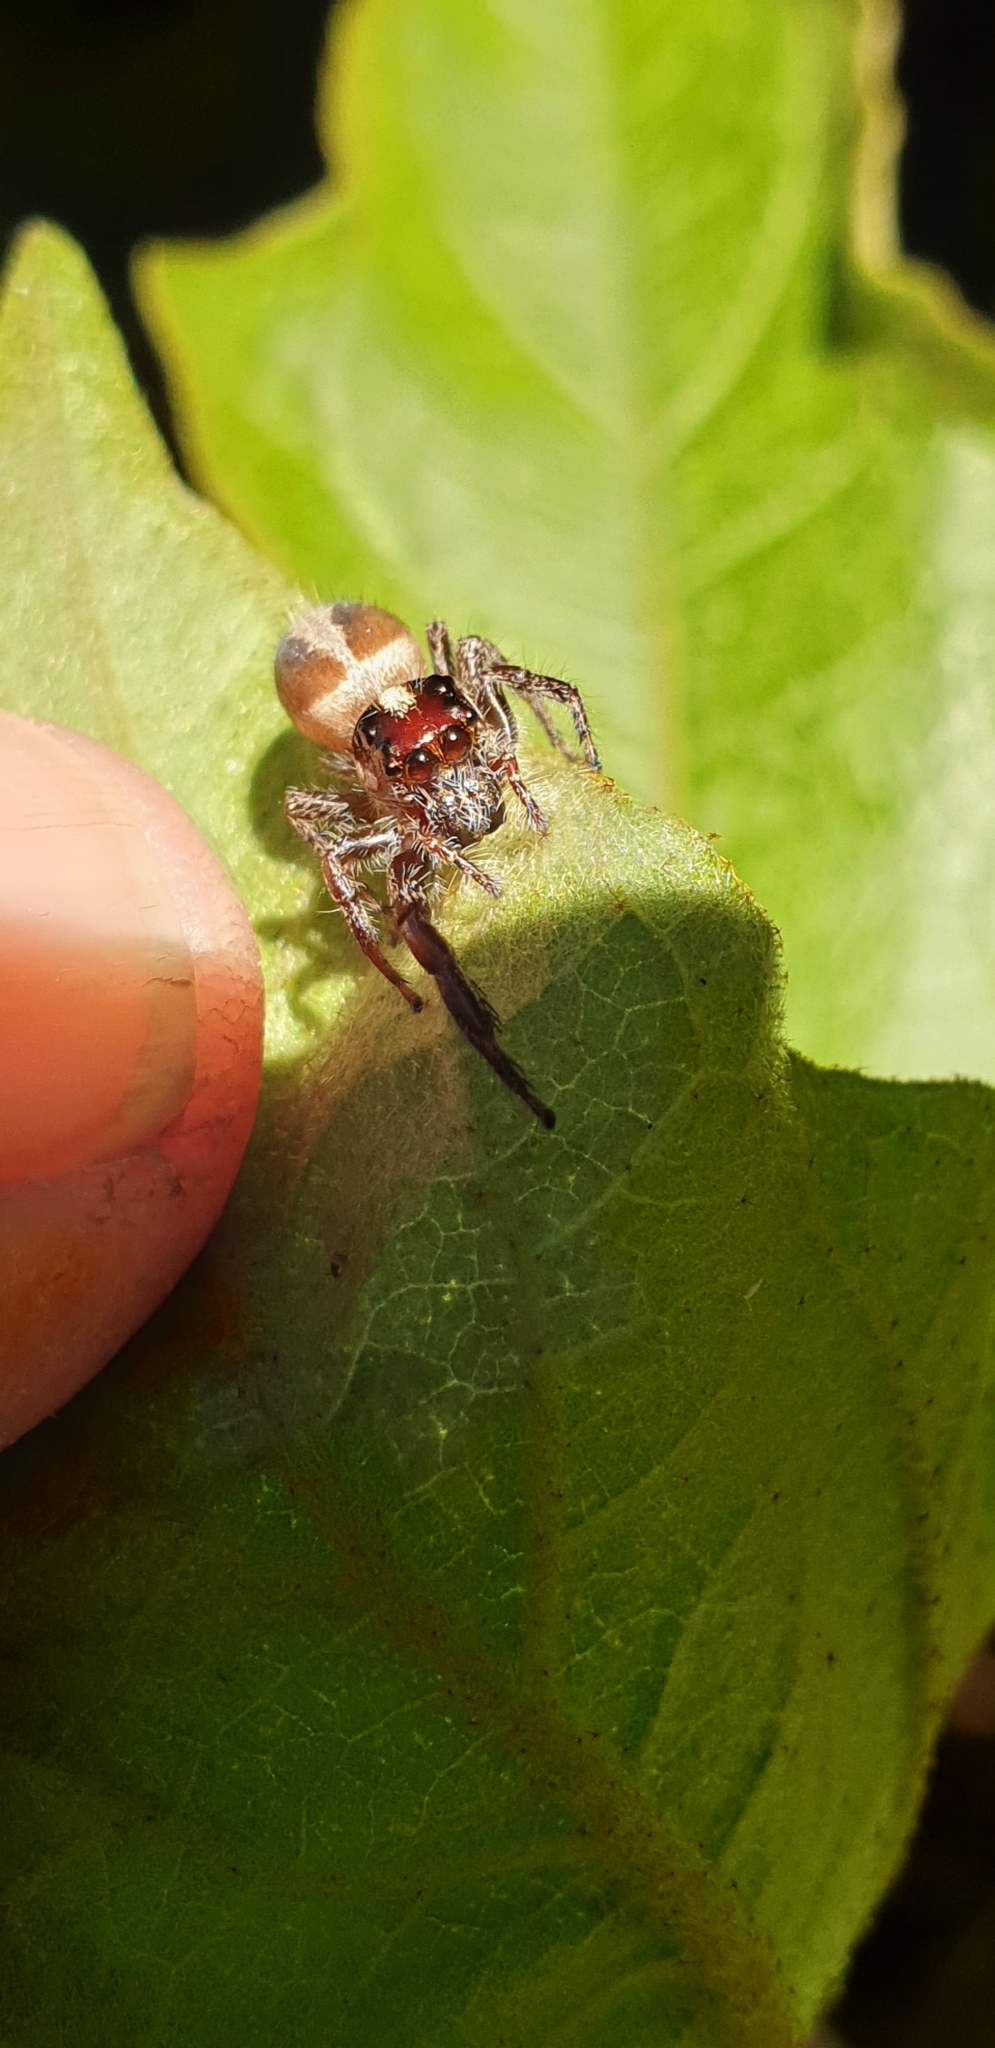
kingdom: Animalia
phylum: Arthropoda
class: Arachnida
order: Araneae
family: Salticidae
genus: Sandalodes
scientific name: Sandalodes bipenicillatus
